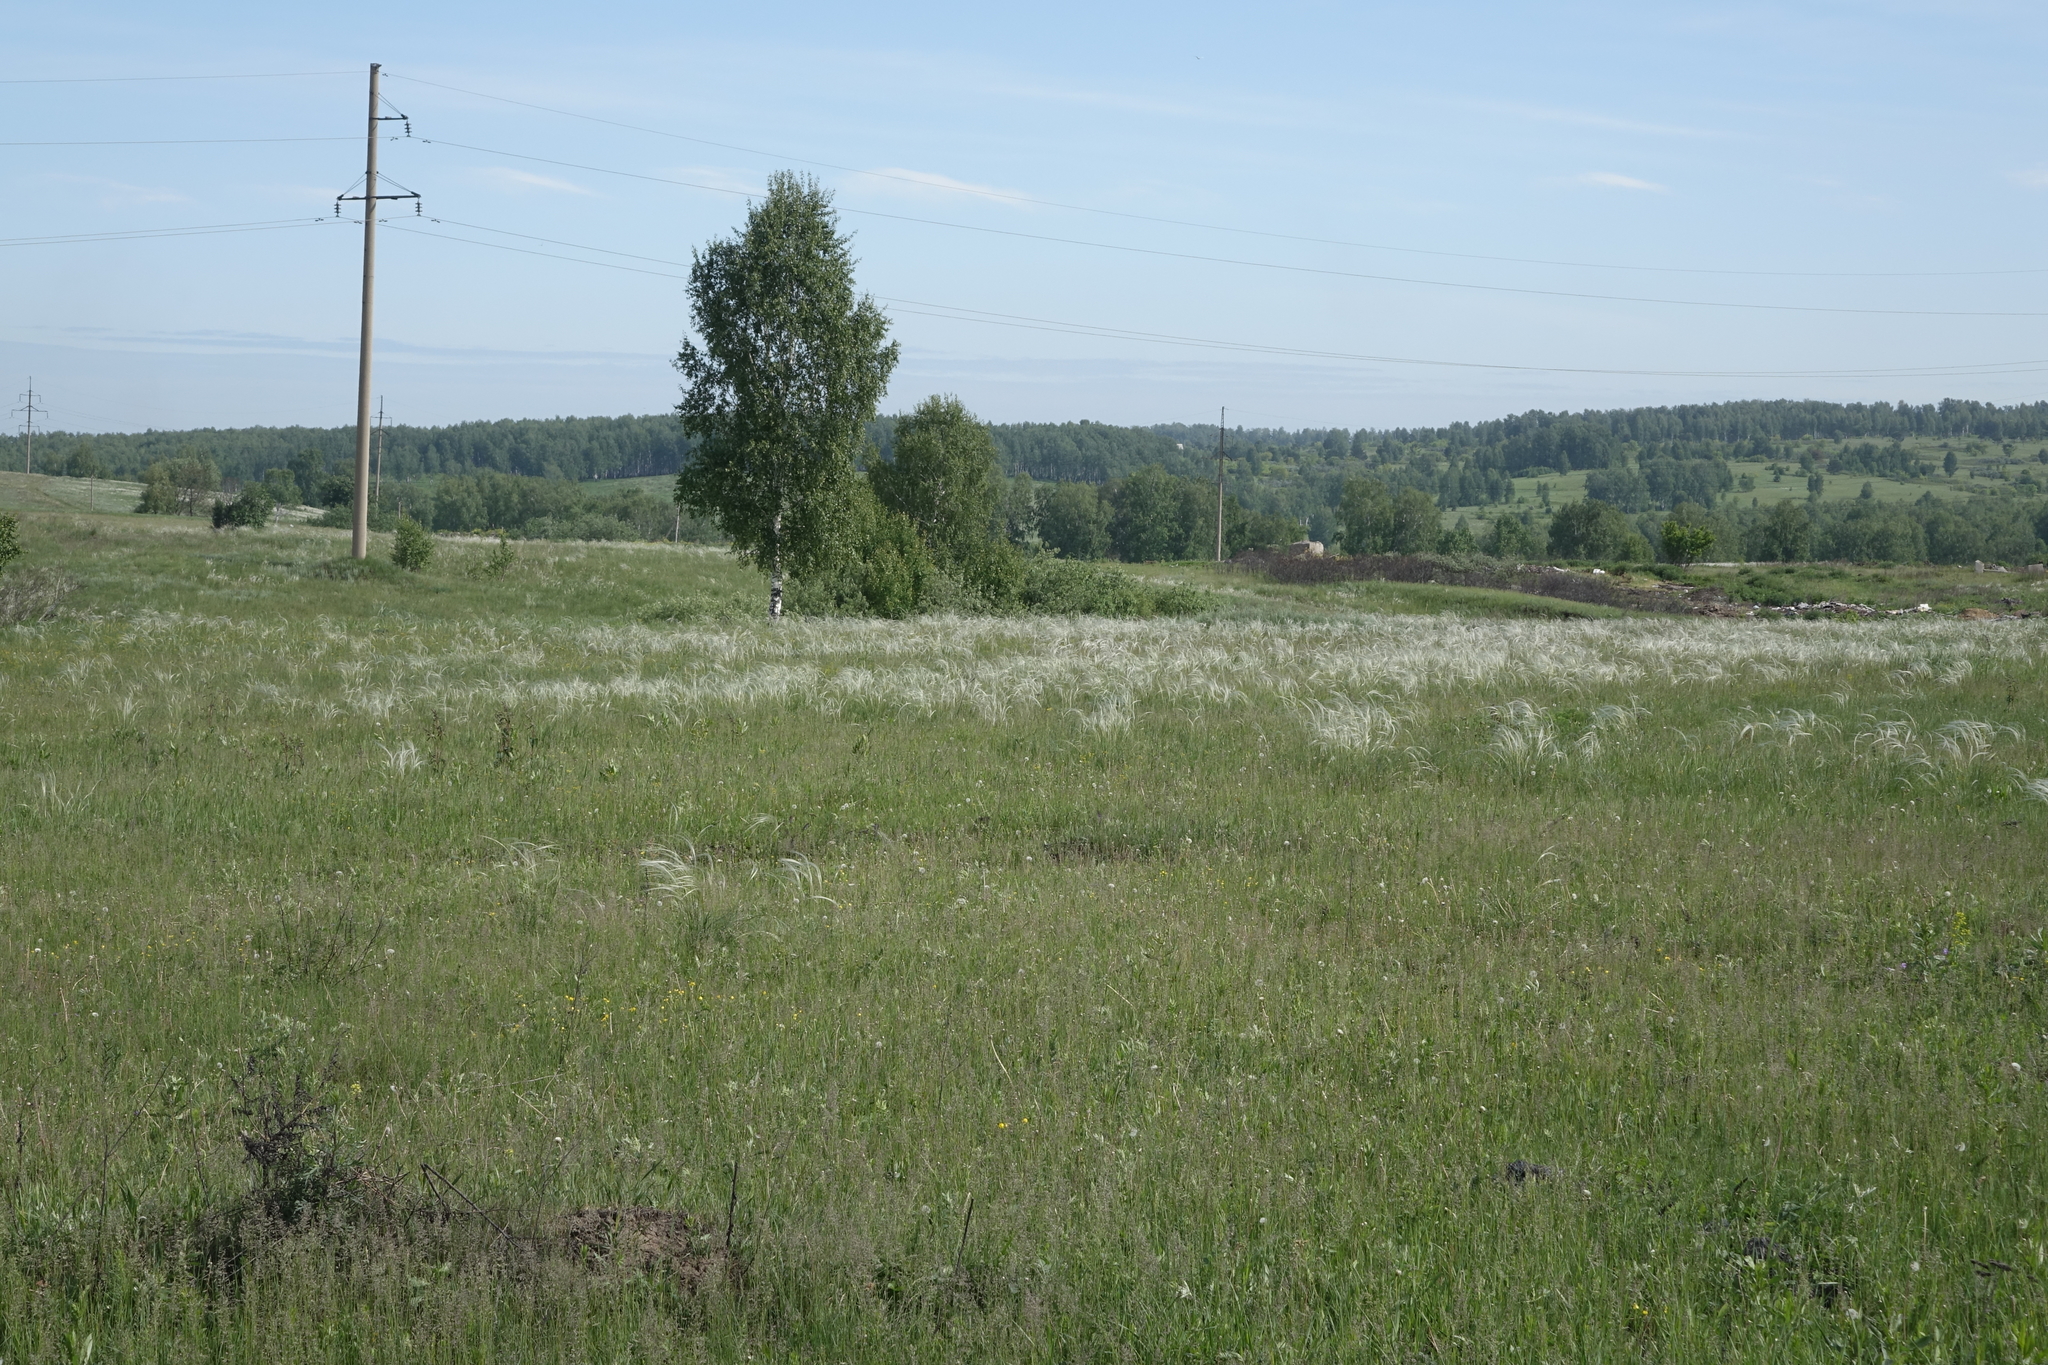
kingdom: Plantae
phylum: Tracheophyta
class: Liliopsida
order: Poales
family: Poaceae
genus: Stipa
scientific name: Stipa pennata
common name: European feather grass
